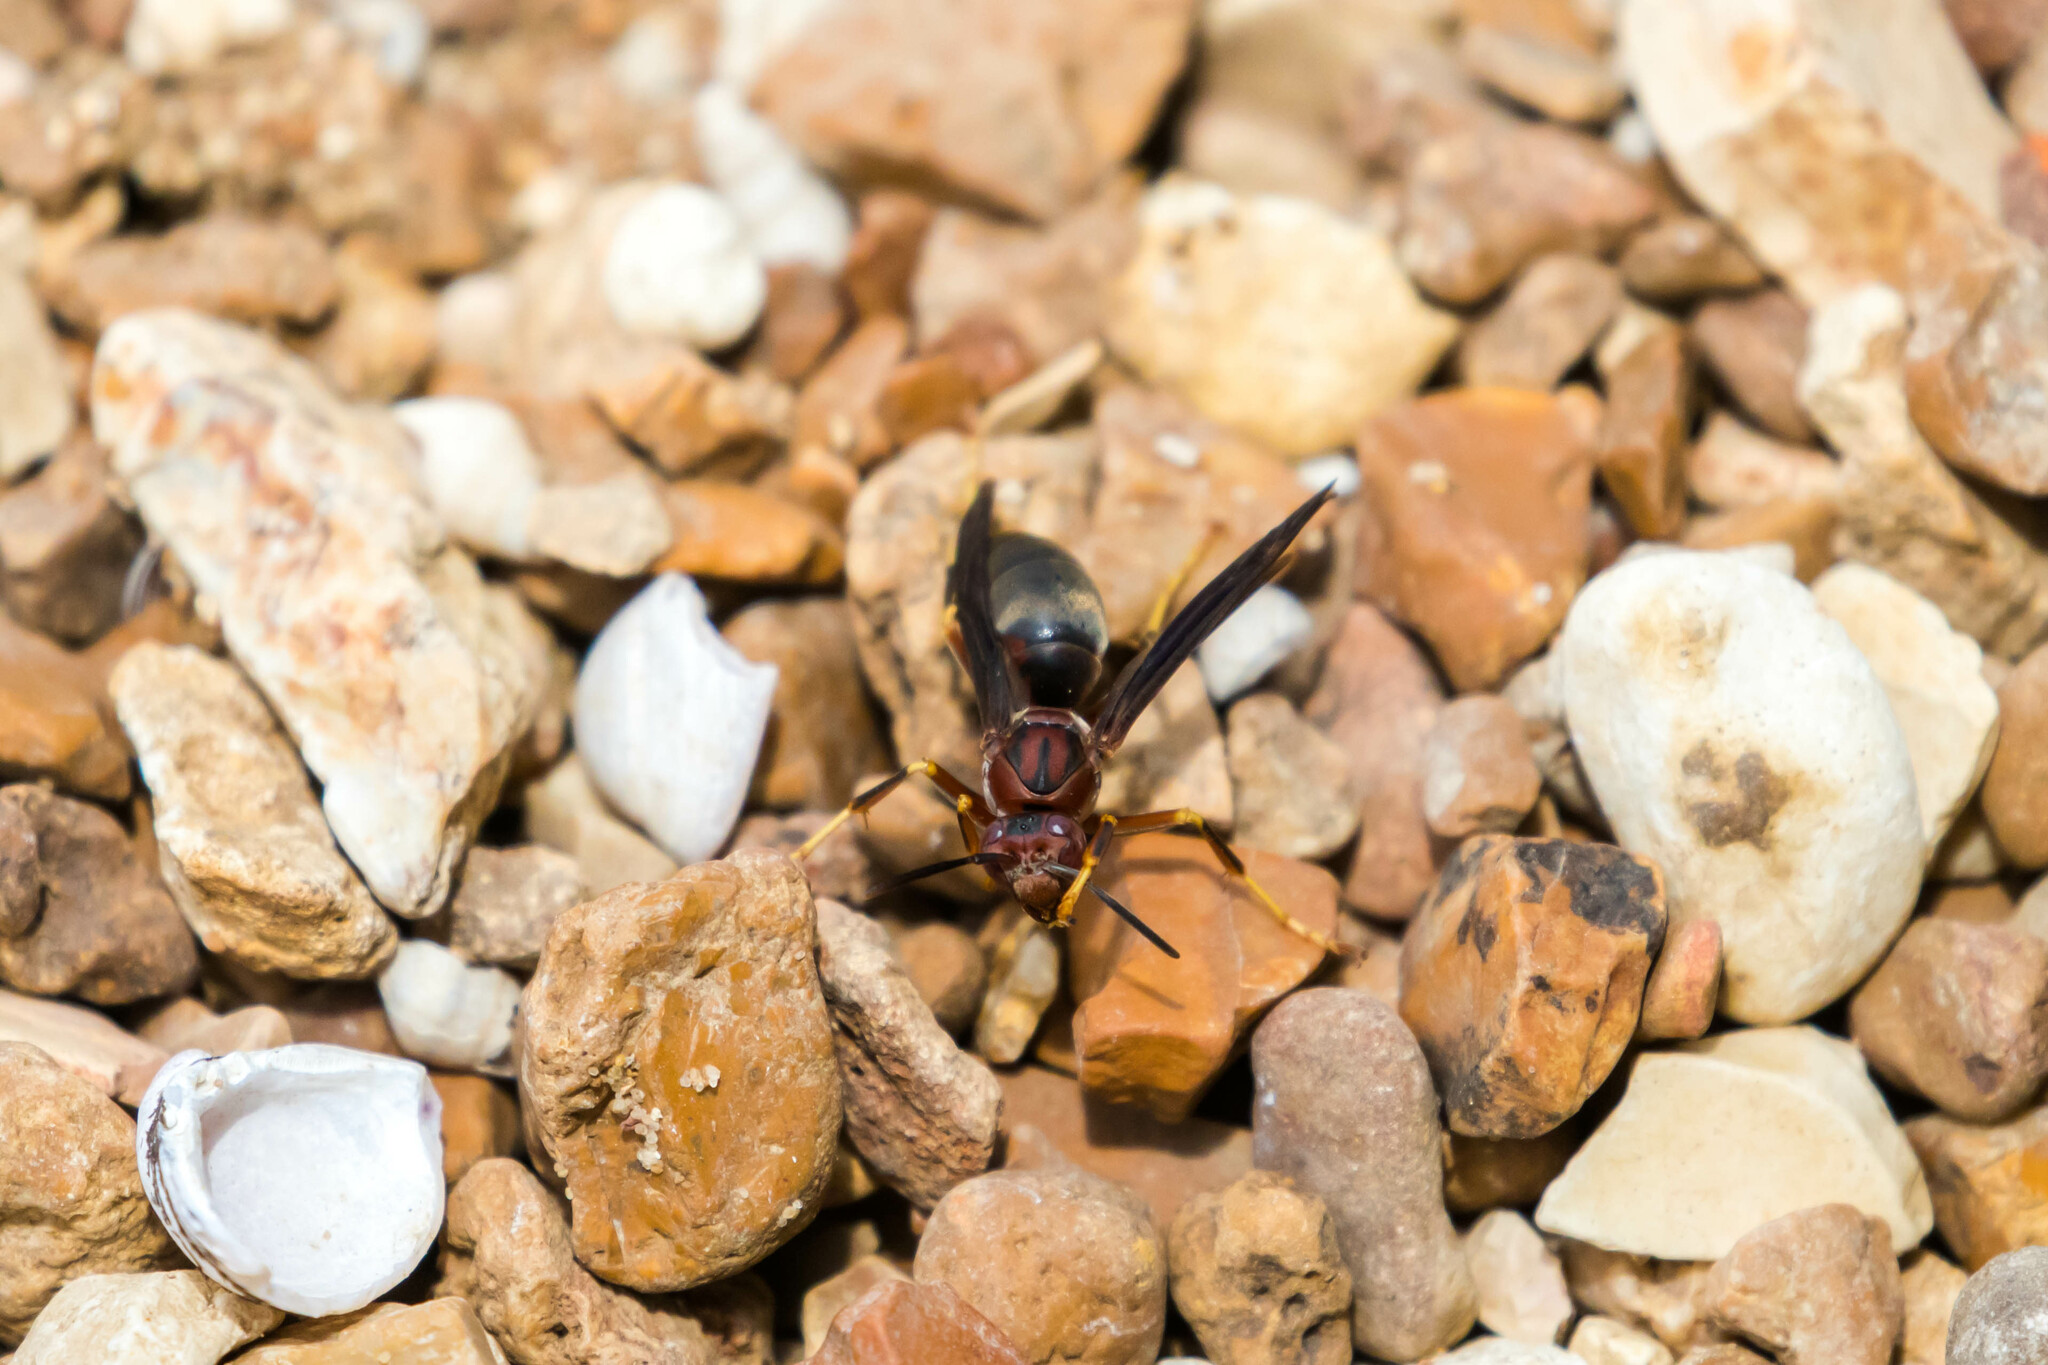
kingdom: Animalia
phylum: Arthropoda
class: Insecta
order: Hymenoptera
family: Eumenidae
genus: Polistes
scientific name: Polistes metricus
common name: Metric paper wasp
